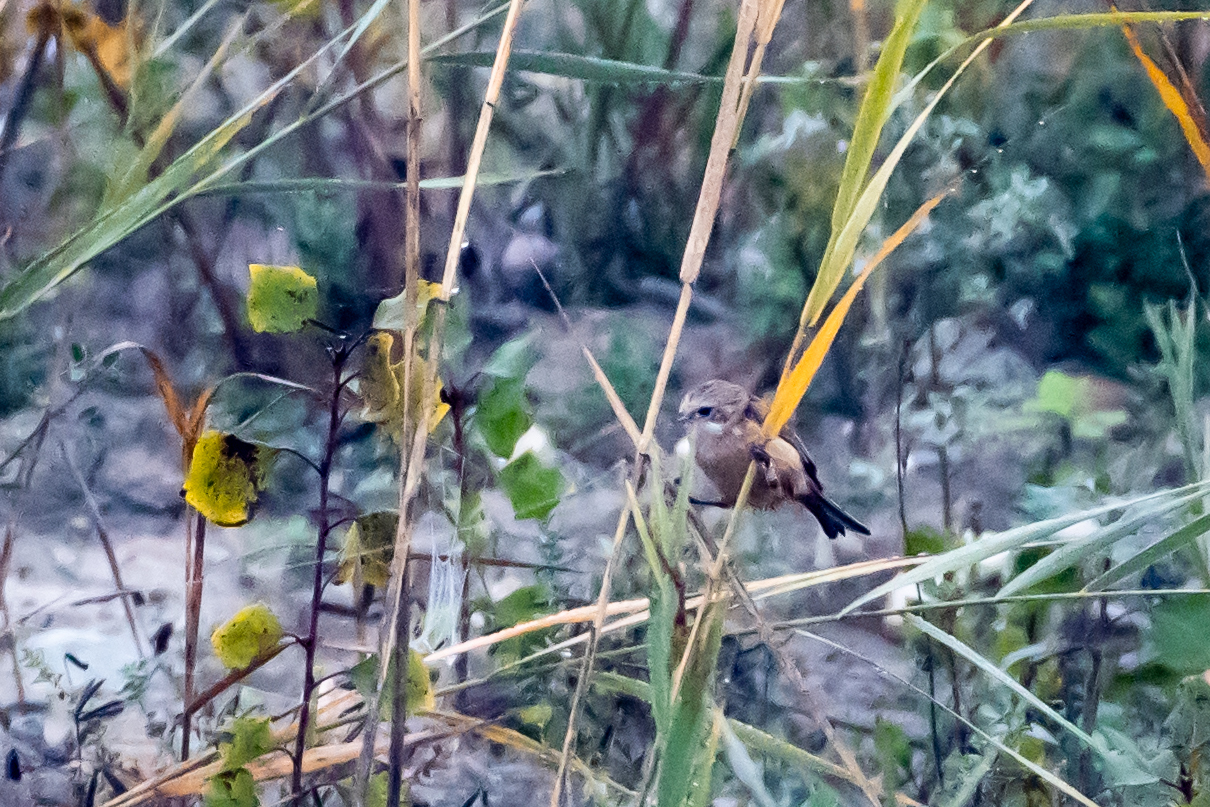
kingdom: Animalia
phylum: Chordata
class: Aves
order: Passeriformes
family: Remizidae
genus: Remiz
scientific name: Remiz pendulinus
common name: Eurasian penduline tit
